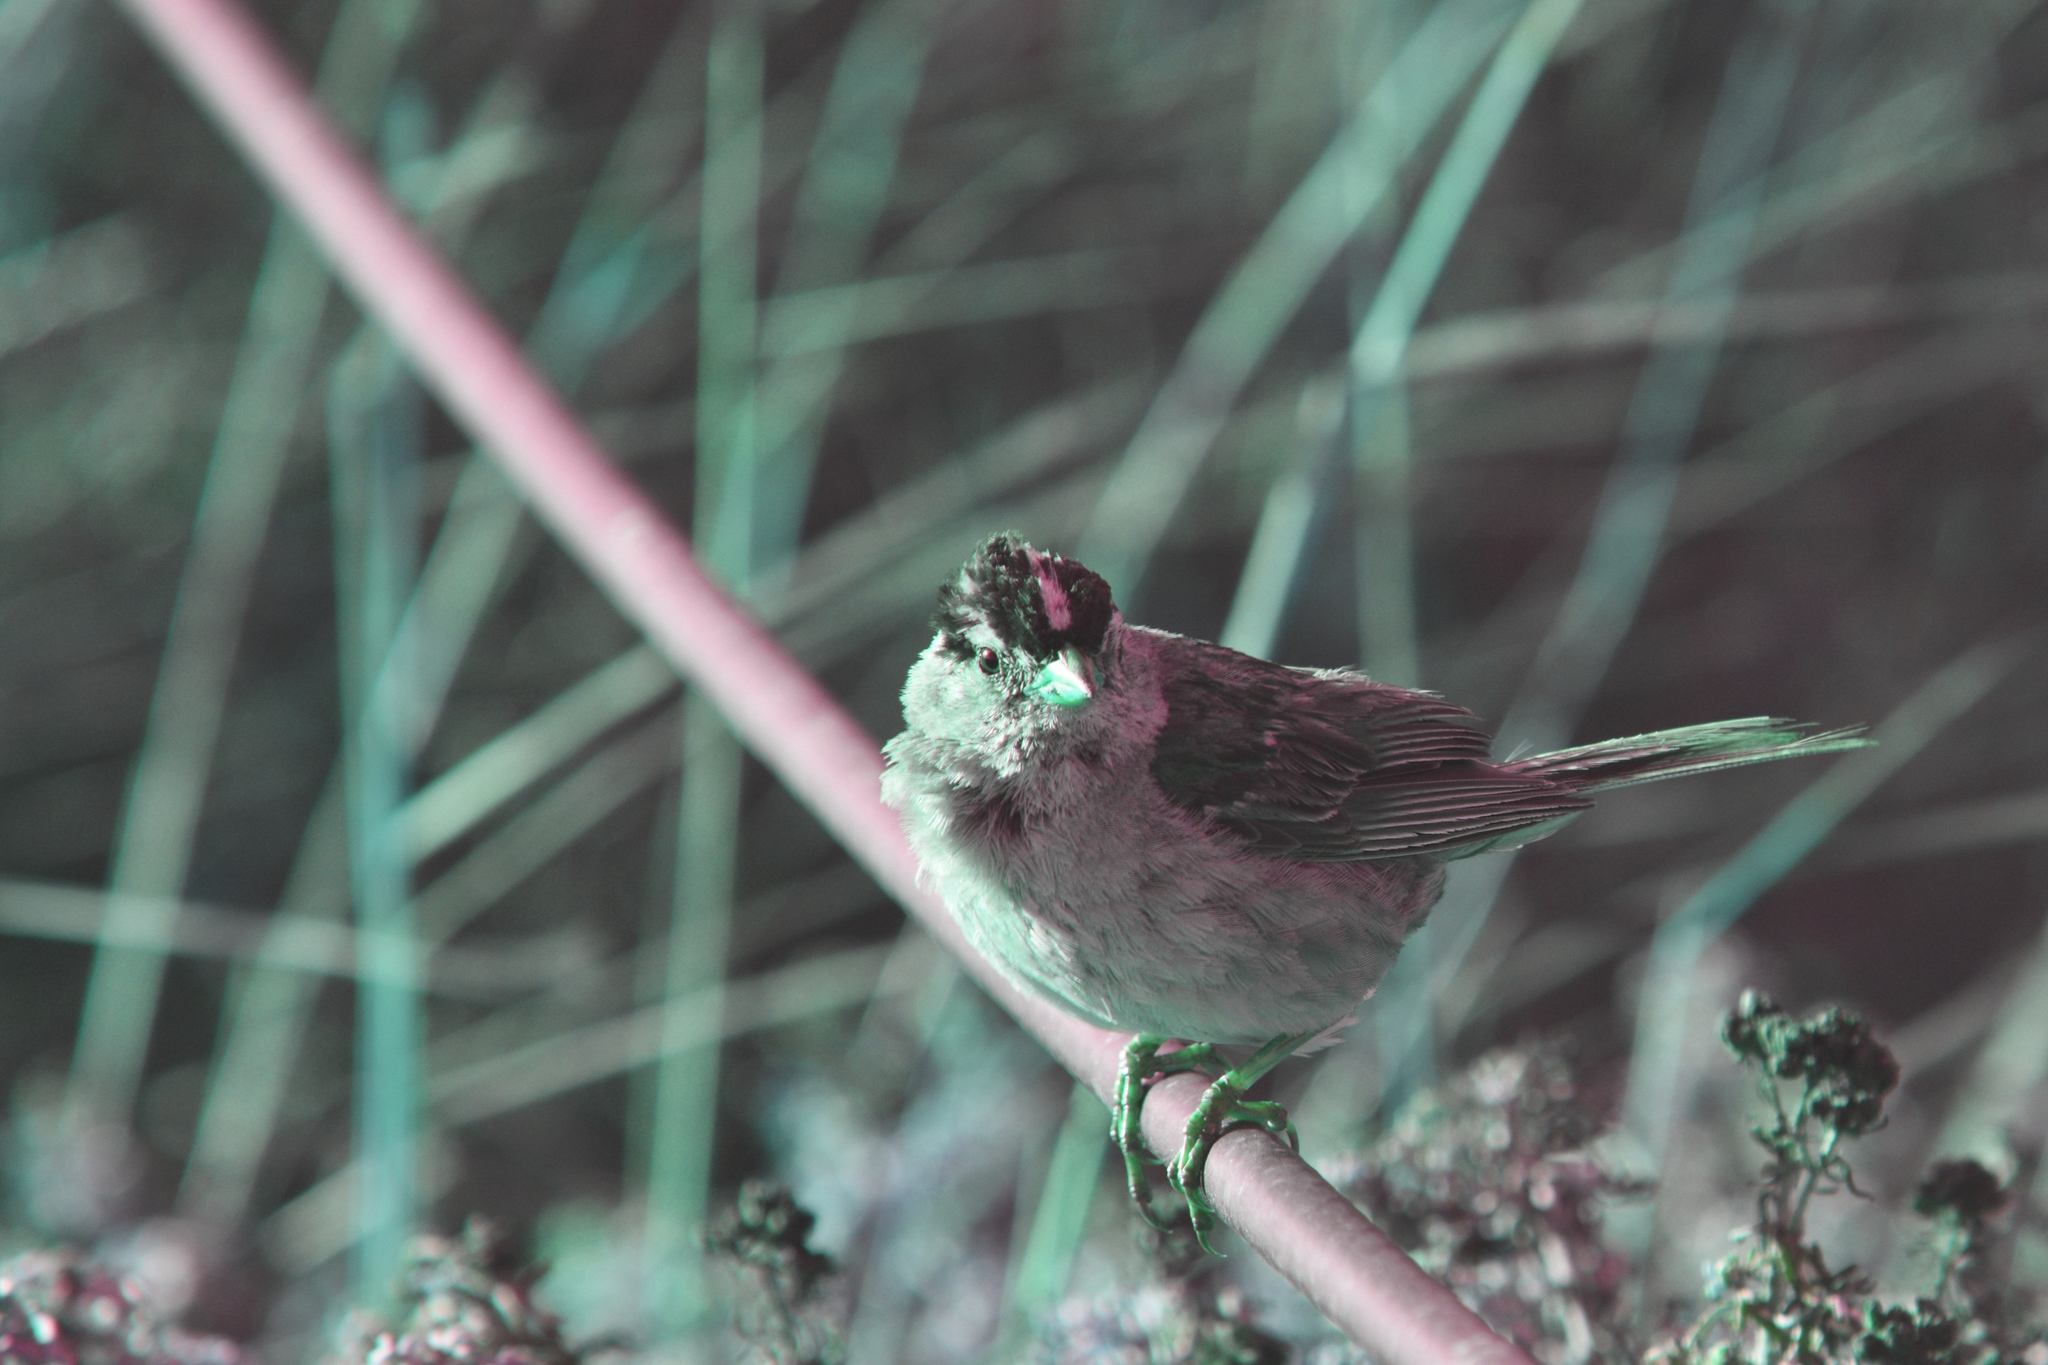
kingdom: Animalia
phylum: Chordata
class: Aves
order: Passeriformes
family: Passerellidae
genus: Zonotrichia
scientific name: Zonotrichia leucophrys
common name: White-crowned sparrow
